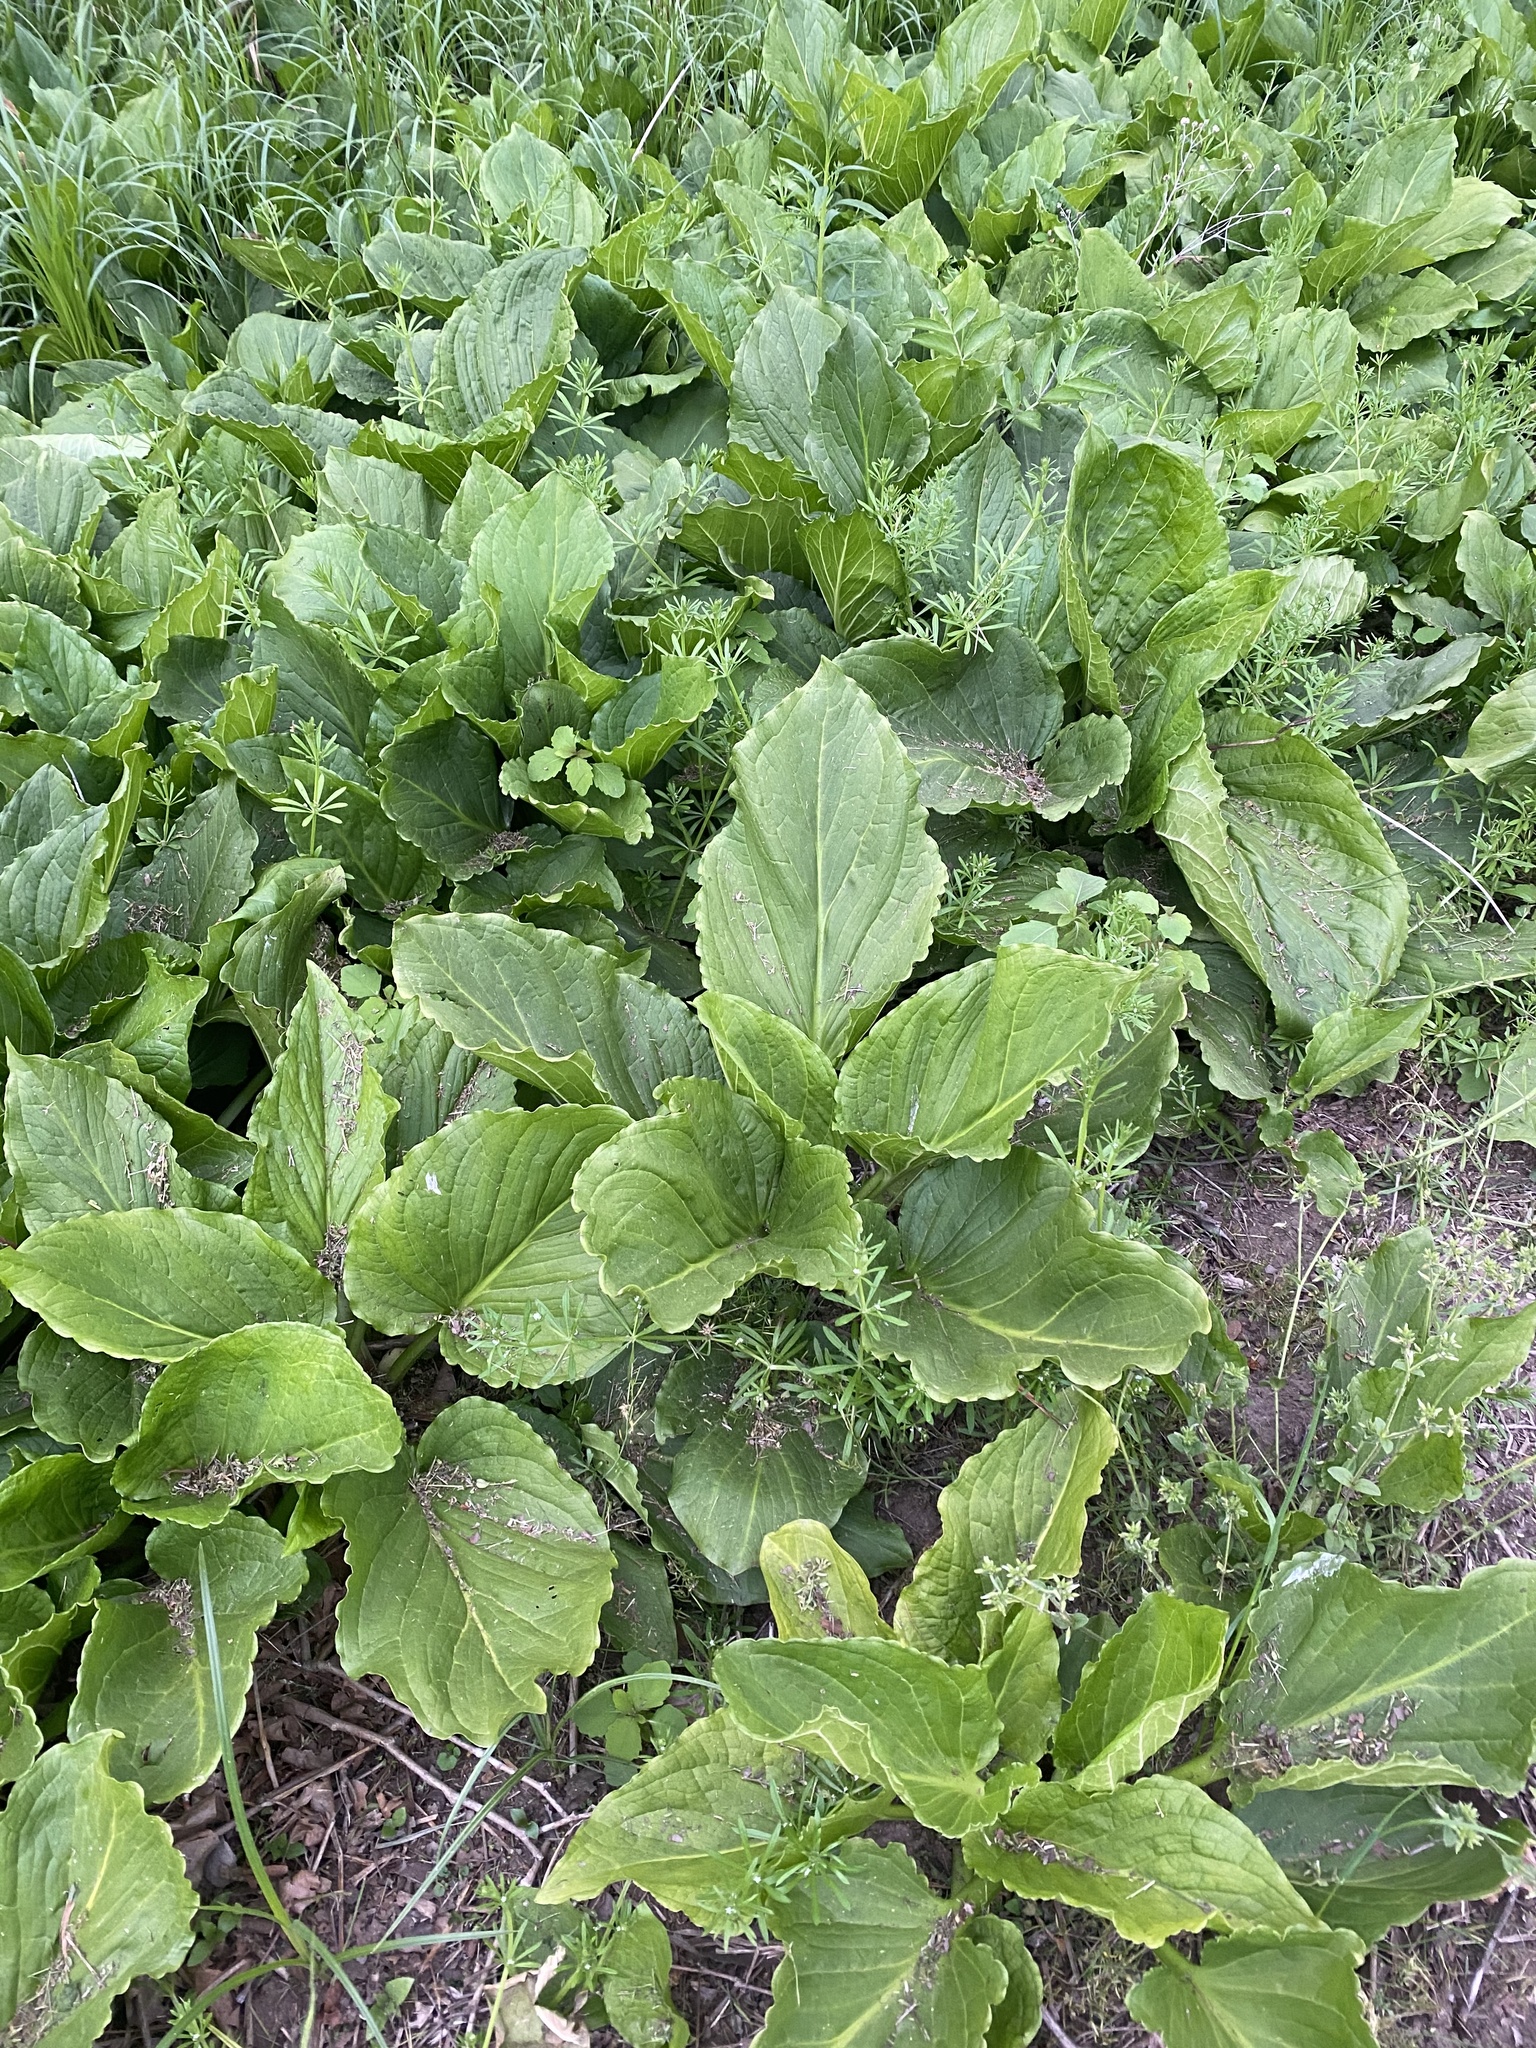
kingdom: Plantae
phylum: Tracheophyta
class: Liliopsida
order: Alismatales
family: Araceae
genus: Symplocarpus
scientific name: Symplocarpus foetidus
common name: Eastern skunk cabbage
